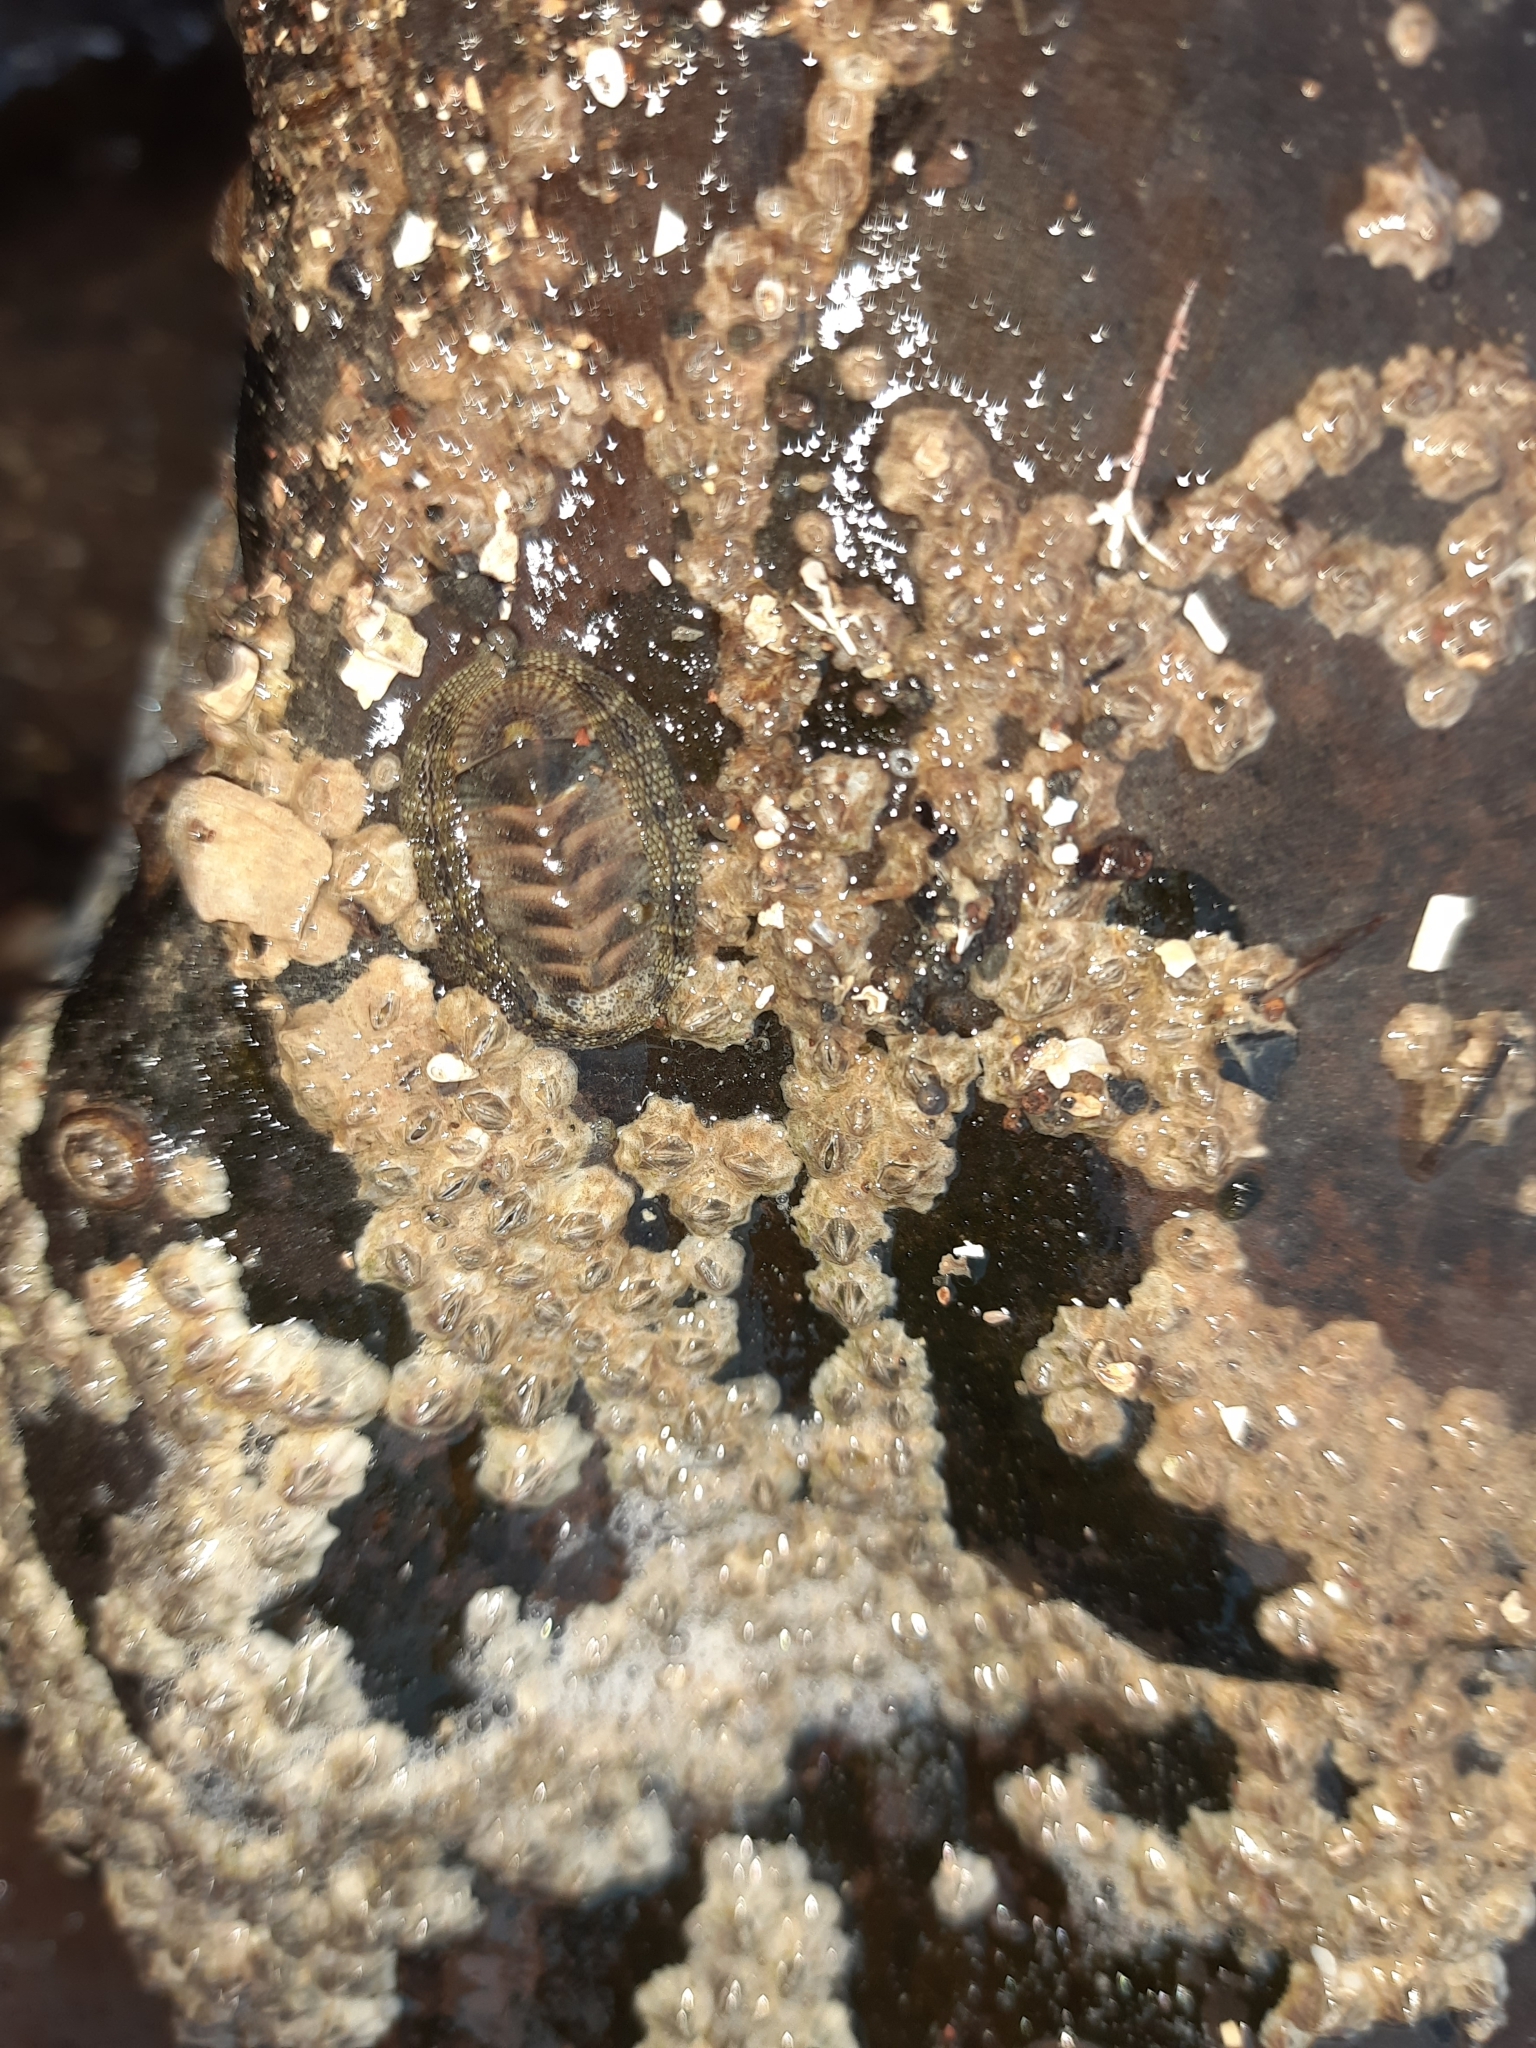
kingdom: Animalia
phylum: Mollusca
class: Polyplacophora
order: Chitonida
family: Chitonidae
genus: Sypharochiton
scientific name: Sypharochiton pelliserpentis
